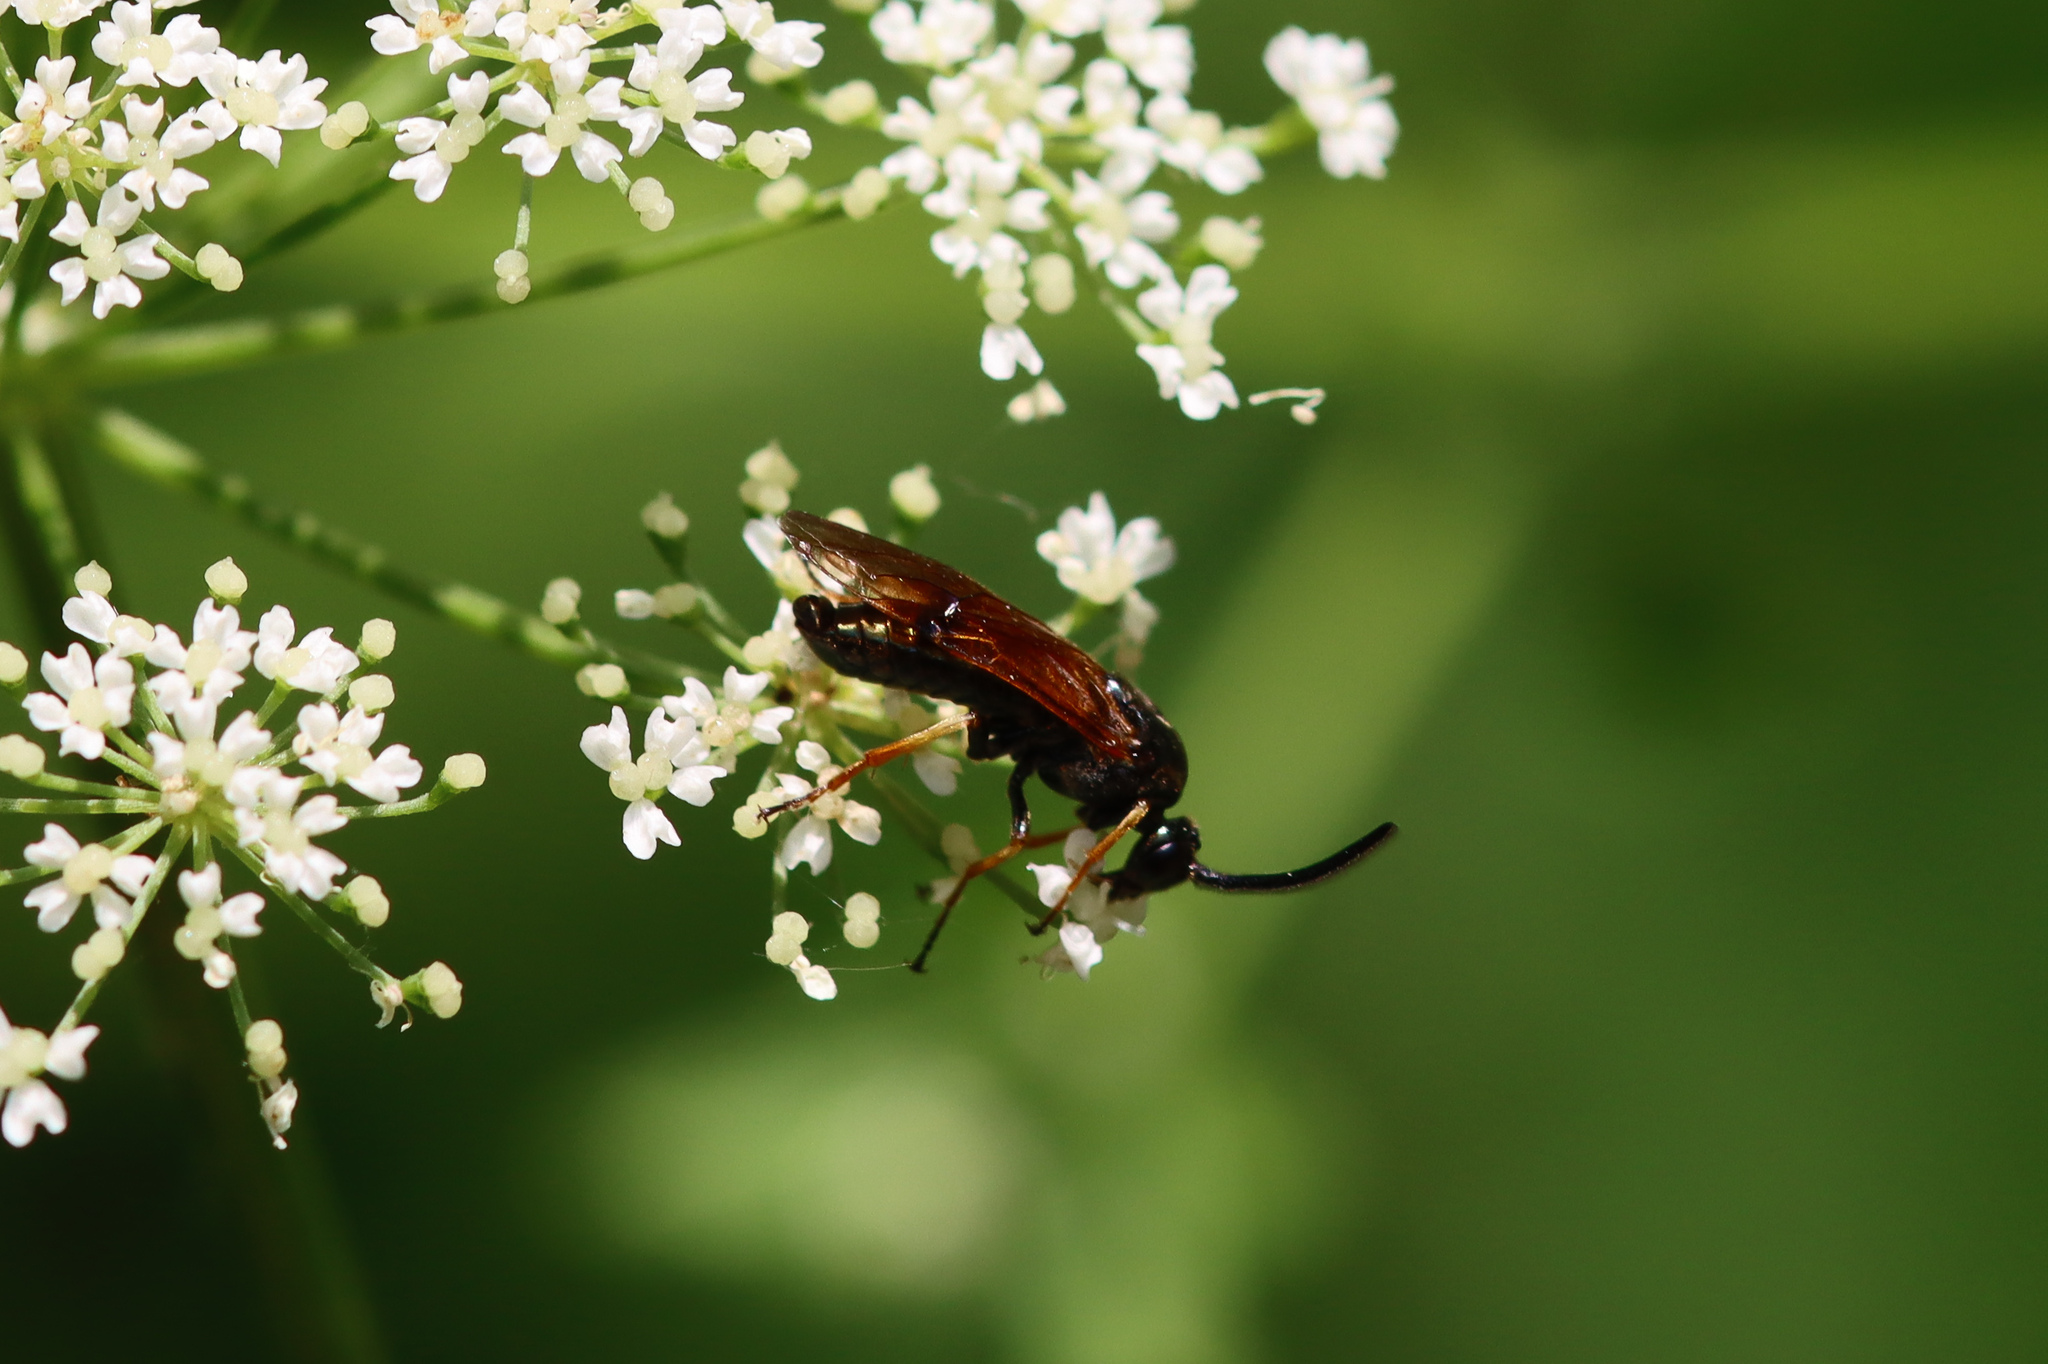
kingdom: Animalia
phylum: Arthropoda
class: Insecta
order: Hymenoptera
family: Argidae
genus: Arge
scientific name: Arge ustulata
